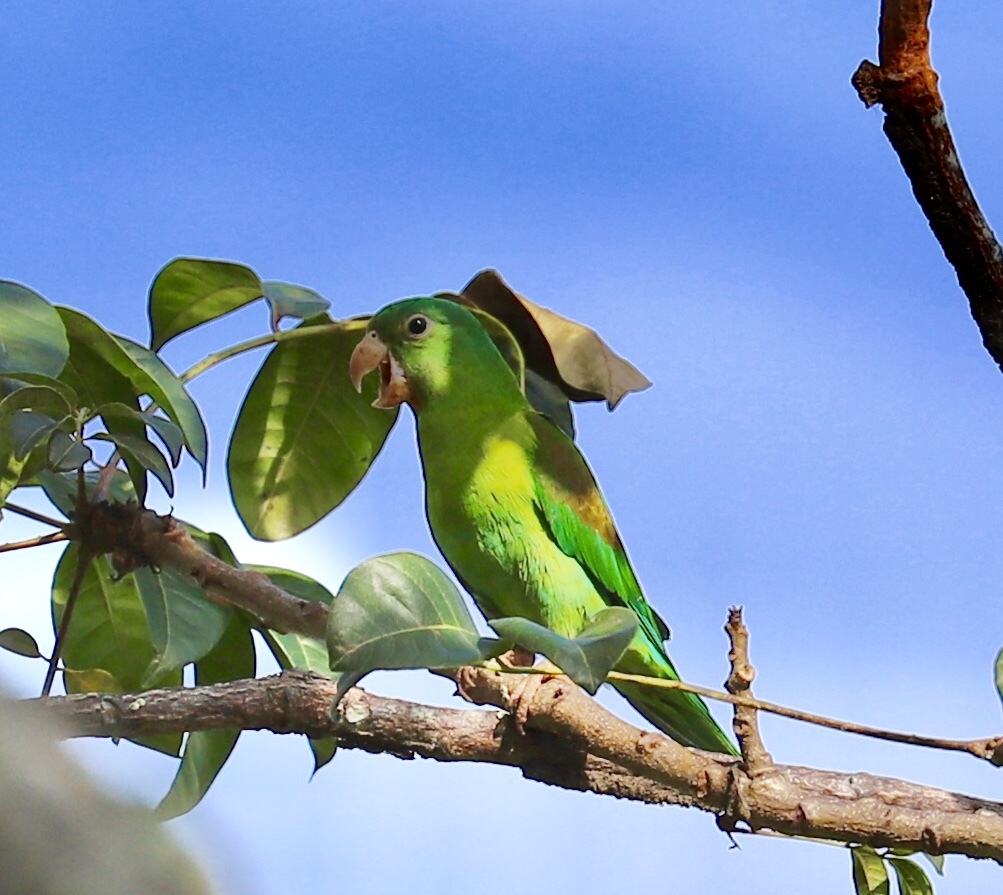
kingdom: Animalia
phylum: Chordata
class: Aves
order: Psittaciformes
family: Psittacidae
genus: Brotogeris
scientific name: Brotogeris jugularis
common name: Orange-chinned parakeet
